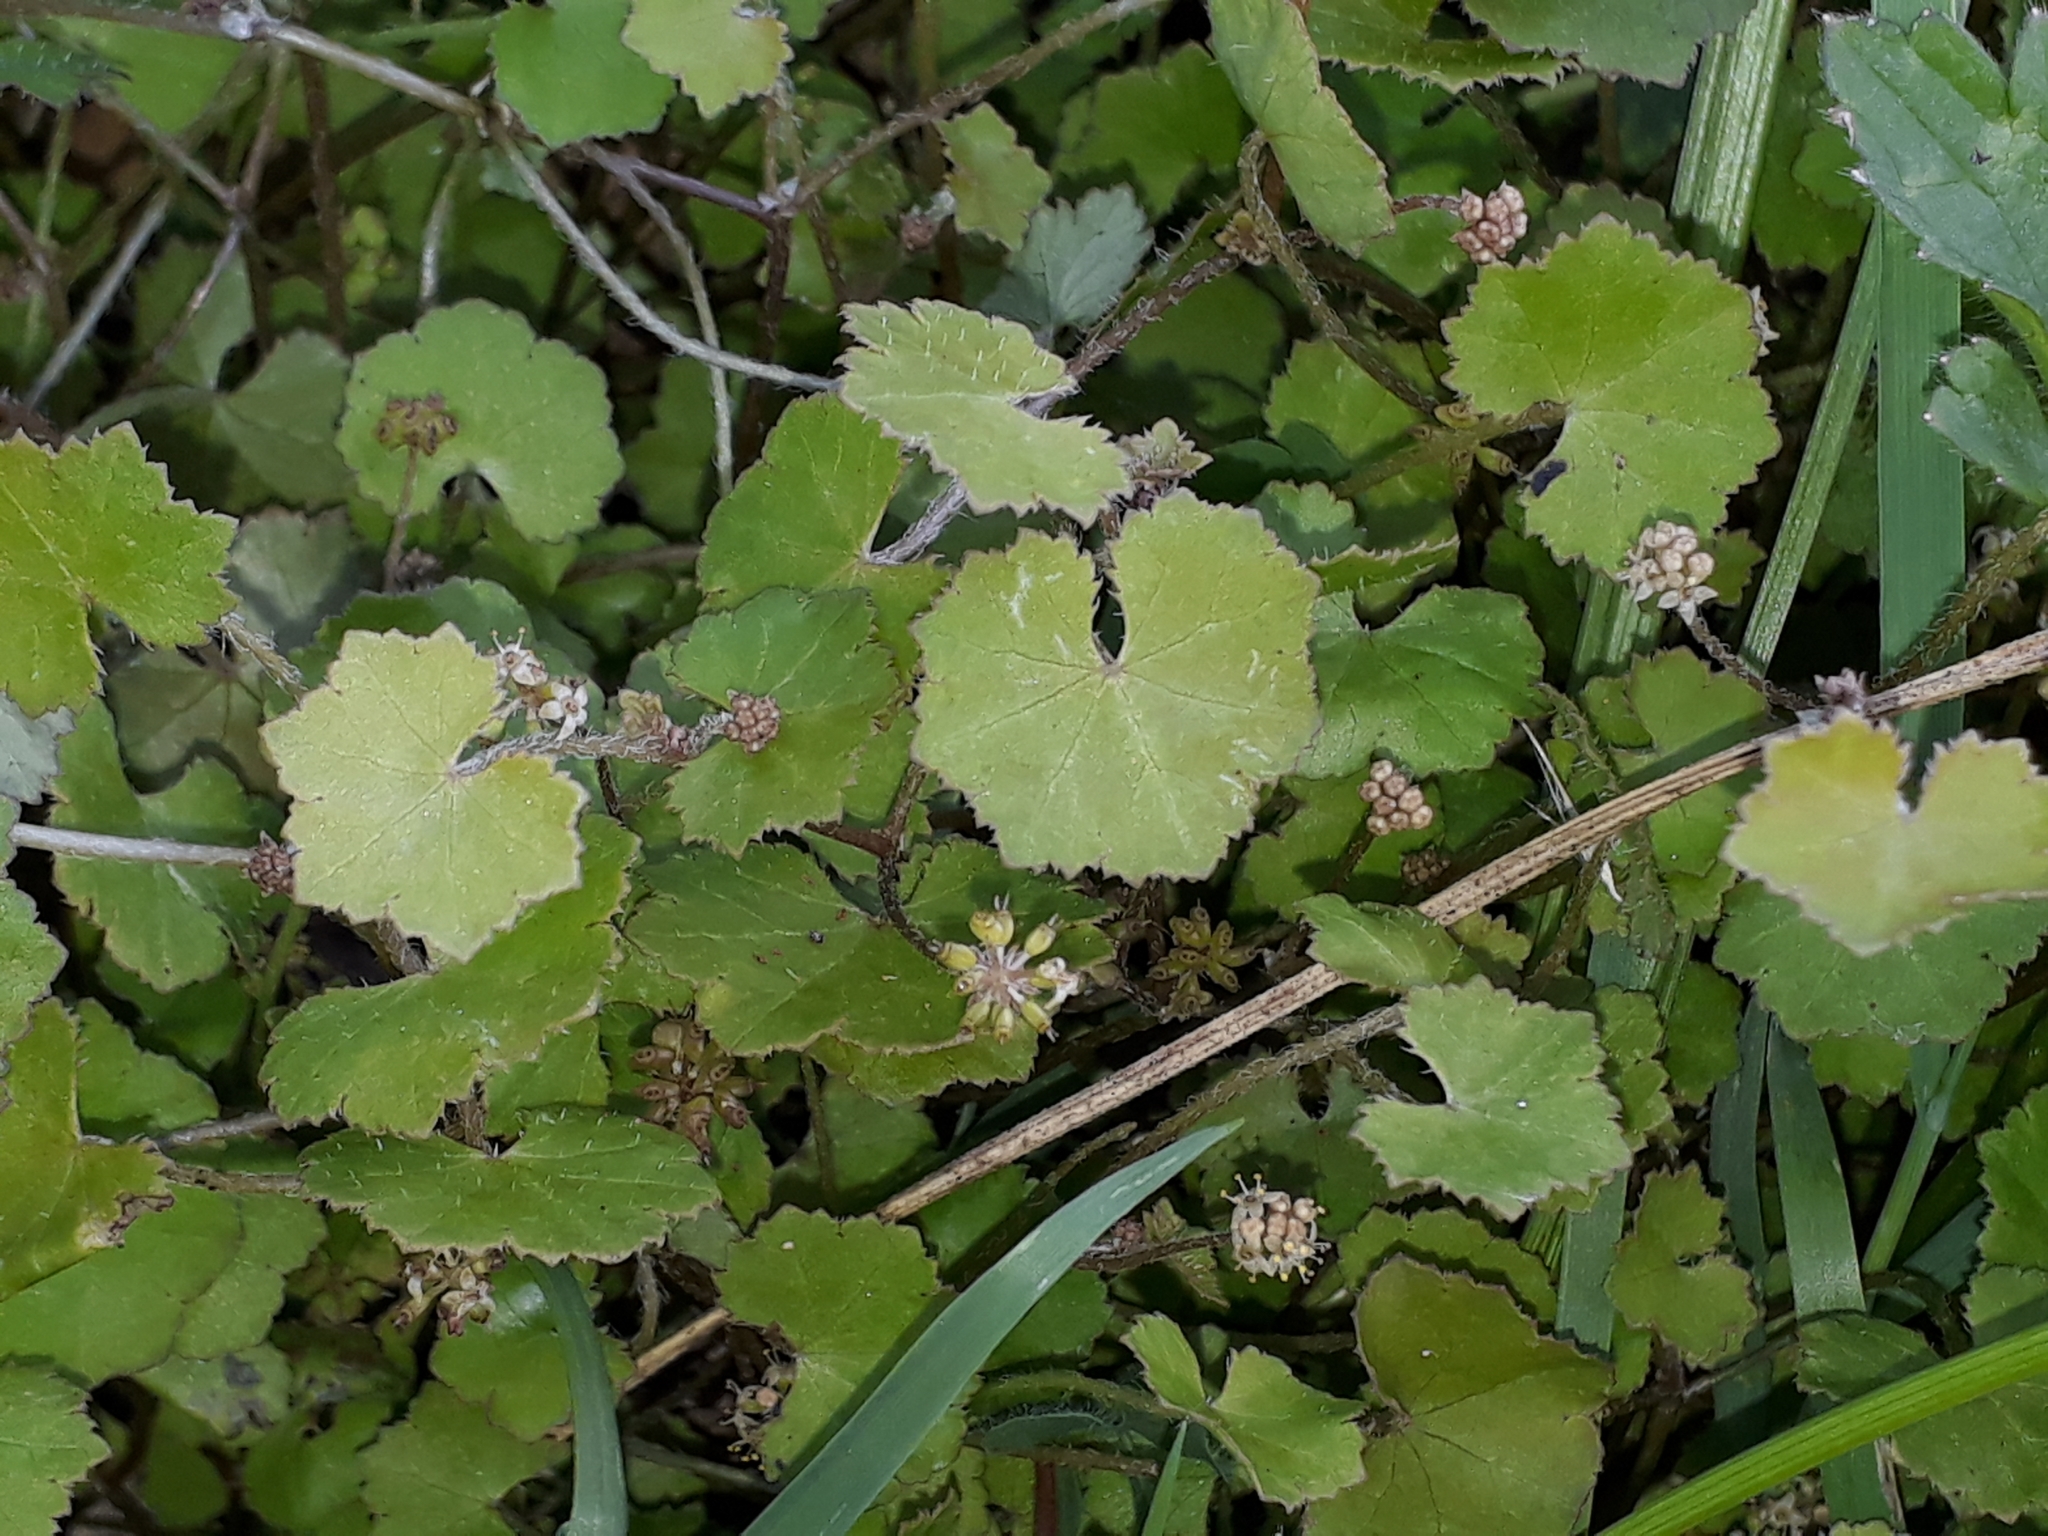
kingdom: Plantae
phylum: Tracheophyta
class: Magnoliopsida
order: Apiales
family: Araliaceae
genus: Hydrocotyle
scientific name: Hydrocotyle novae-zeelandiae
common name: New zealand pennywort
